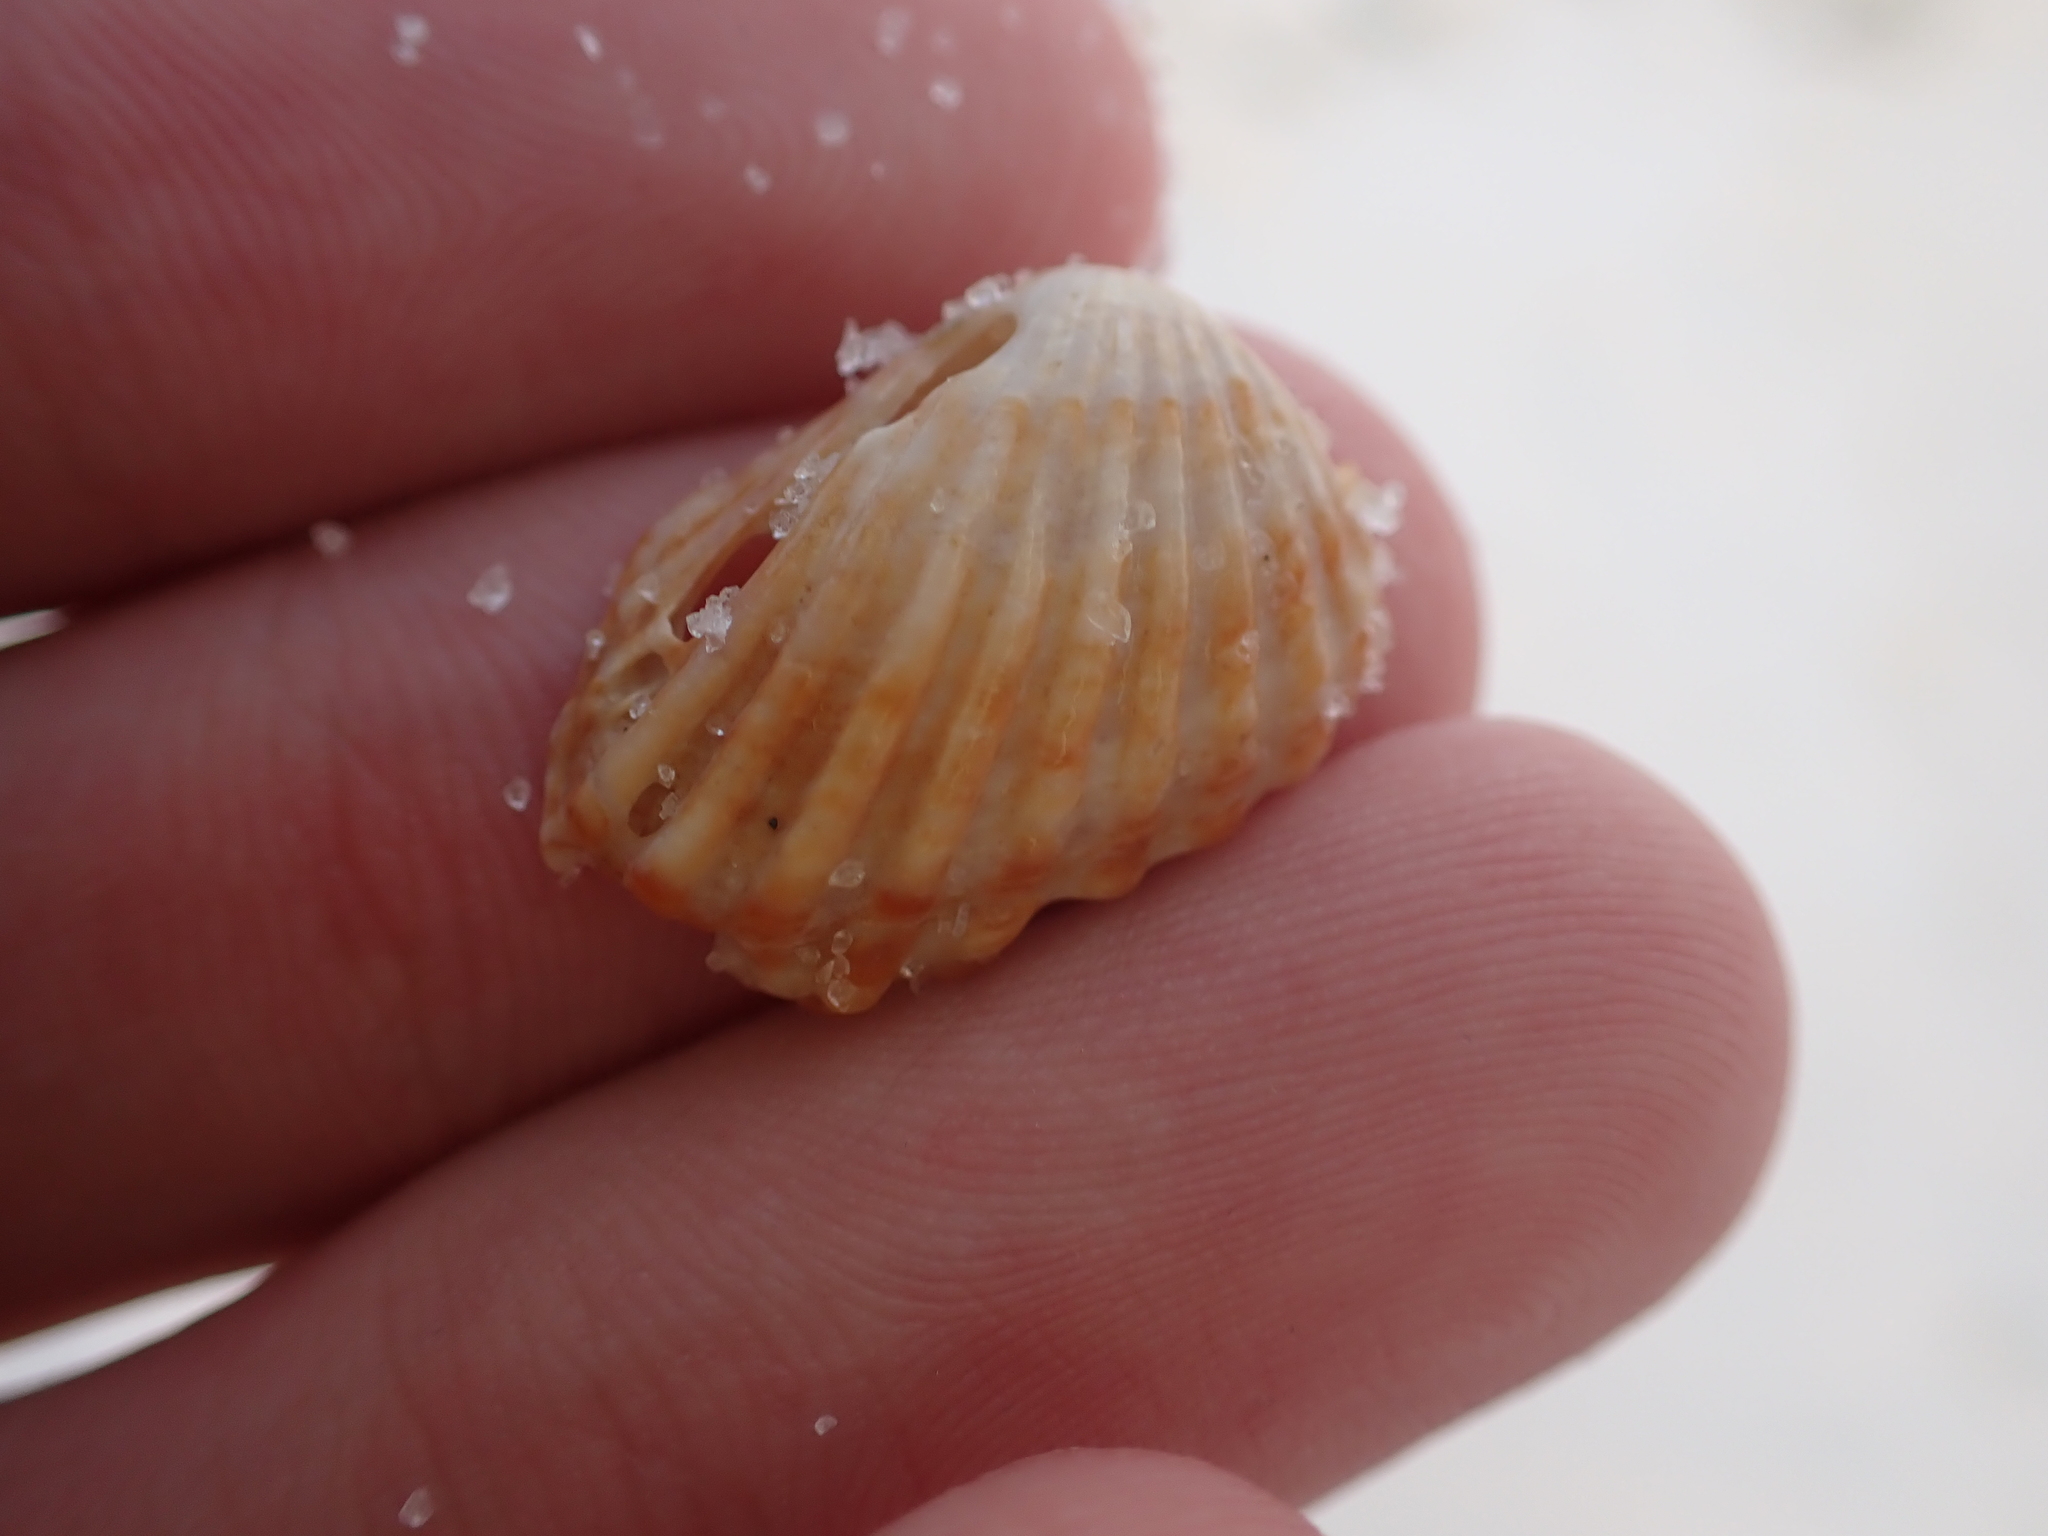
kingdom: Animalia
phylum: Mollusca
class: Bivalvia
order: Carditida
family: Carditidae
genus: Cardites
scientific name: Cardites floridanus
